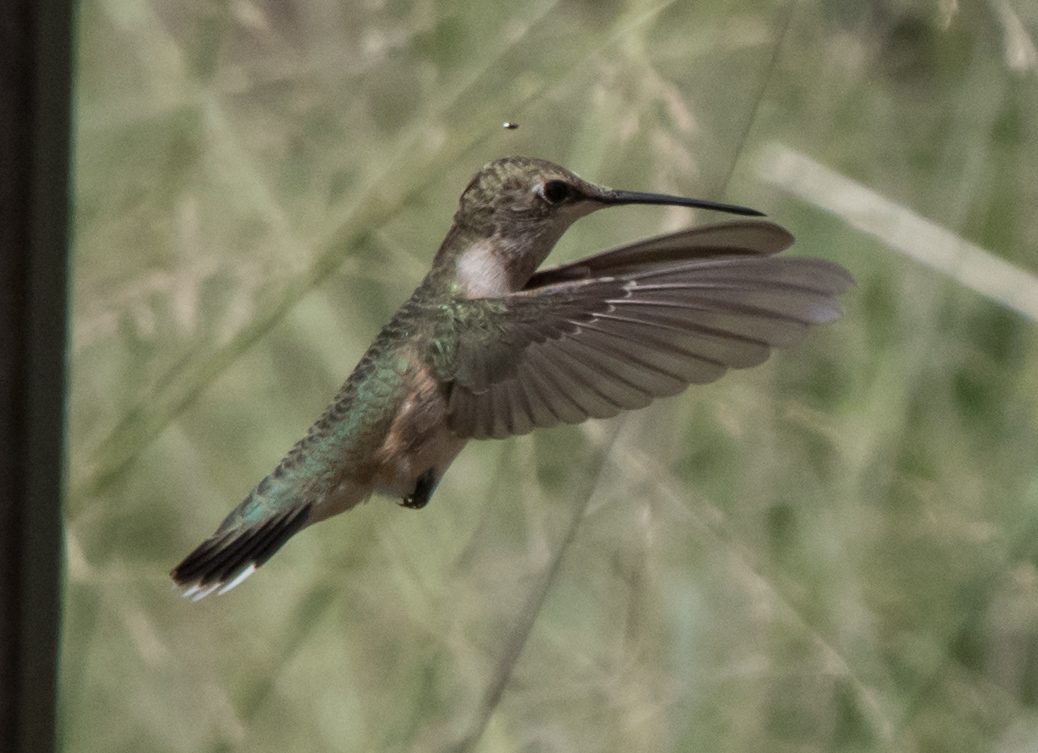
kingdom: Animalia
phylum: Chordata
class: Aves
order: Apodiformes
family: Trochilidae
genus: Archilochus
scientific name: Archilochus alexandri
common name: Black-chinned hummingbird
